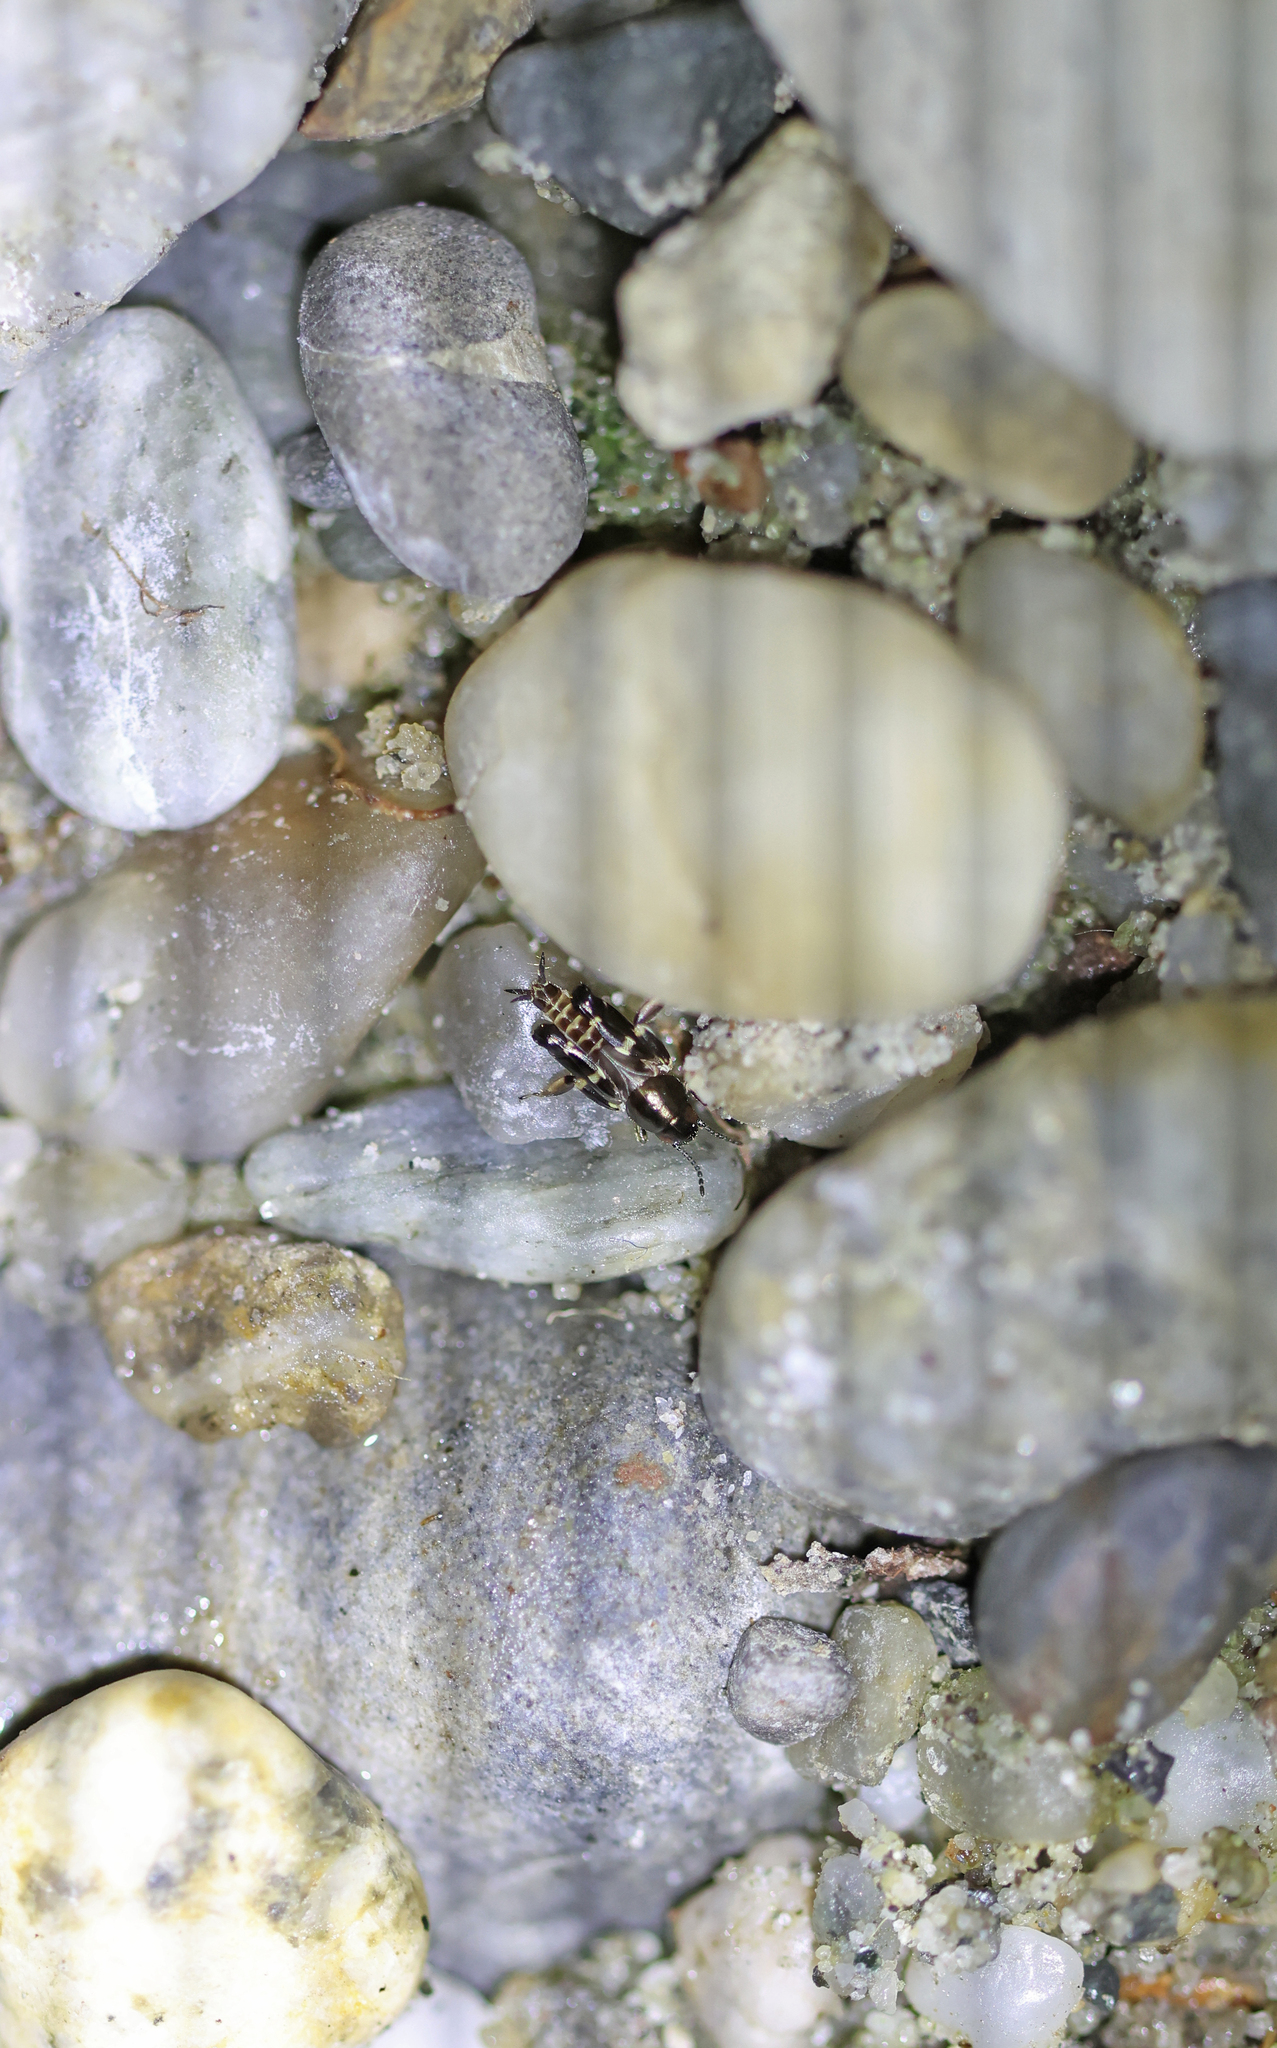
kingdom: Animalia
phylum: Arthropoda
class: Insecta
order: Orthoptera
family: Tridactylidae
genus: Xya
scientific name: Xya pfaendleri
